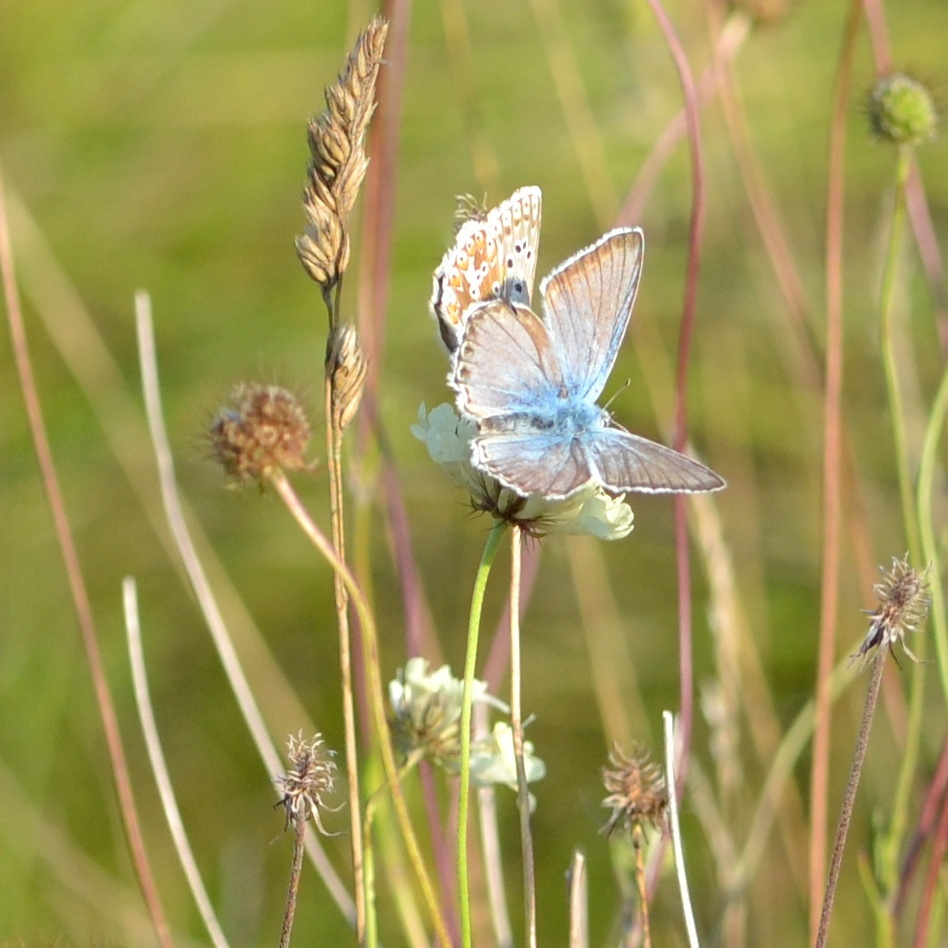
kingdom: Animalia
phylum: Arthropoda
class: Insecta
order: Lepidoptera
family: Lycaenidae
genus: Lysandra
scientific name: Lysandra coridon
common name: Chalkhill blue
